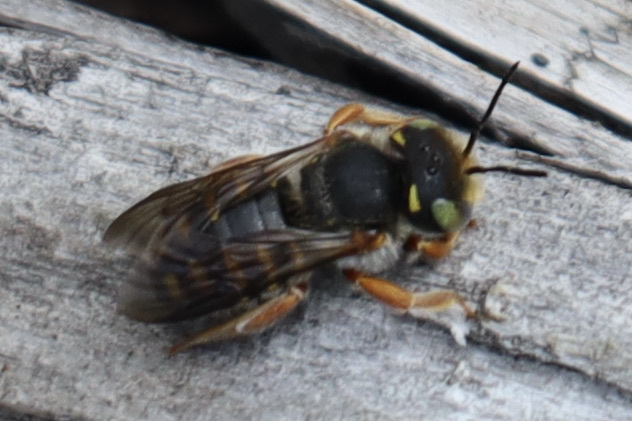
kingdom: Animalia
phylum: Arthropoda
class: Insecta
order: Hymenoptera
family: Megachilidae
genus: Anthidium
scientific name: Anthidium oblongatum
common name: Oblong wool carder bee
